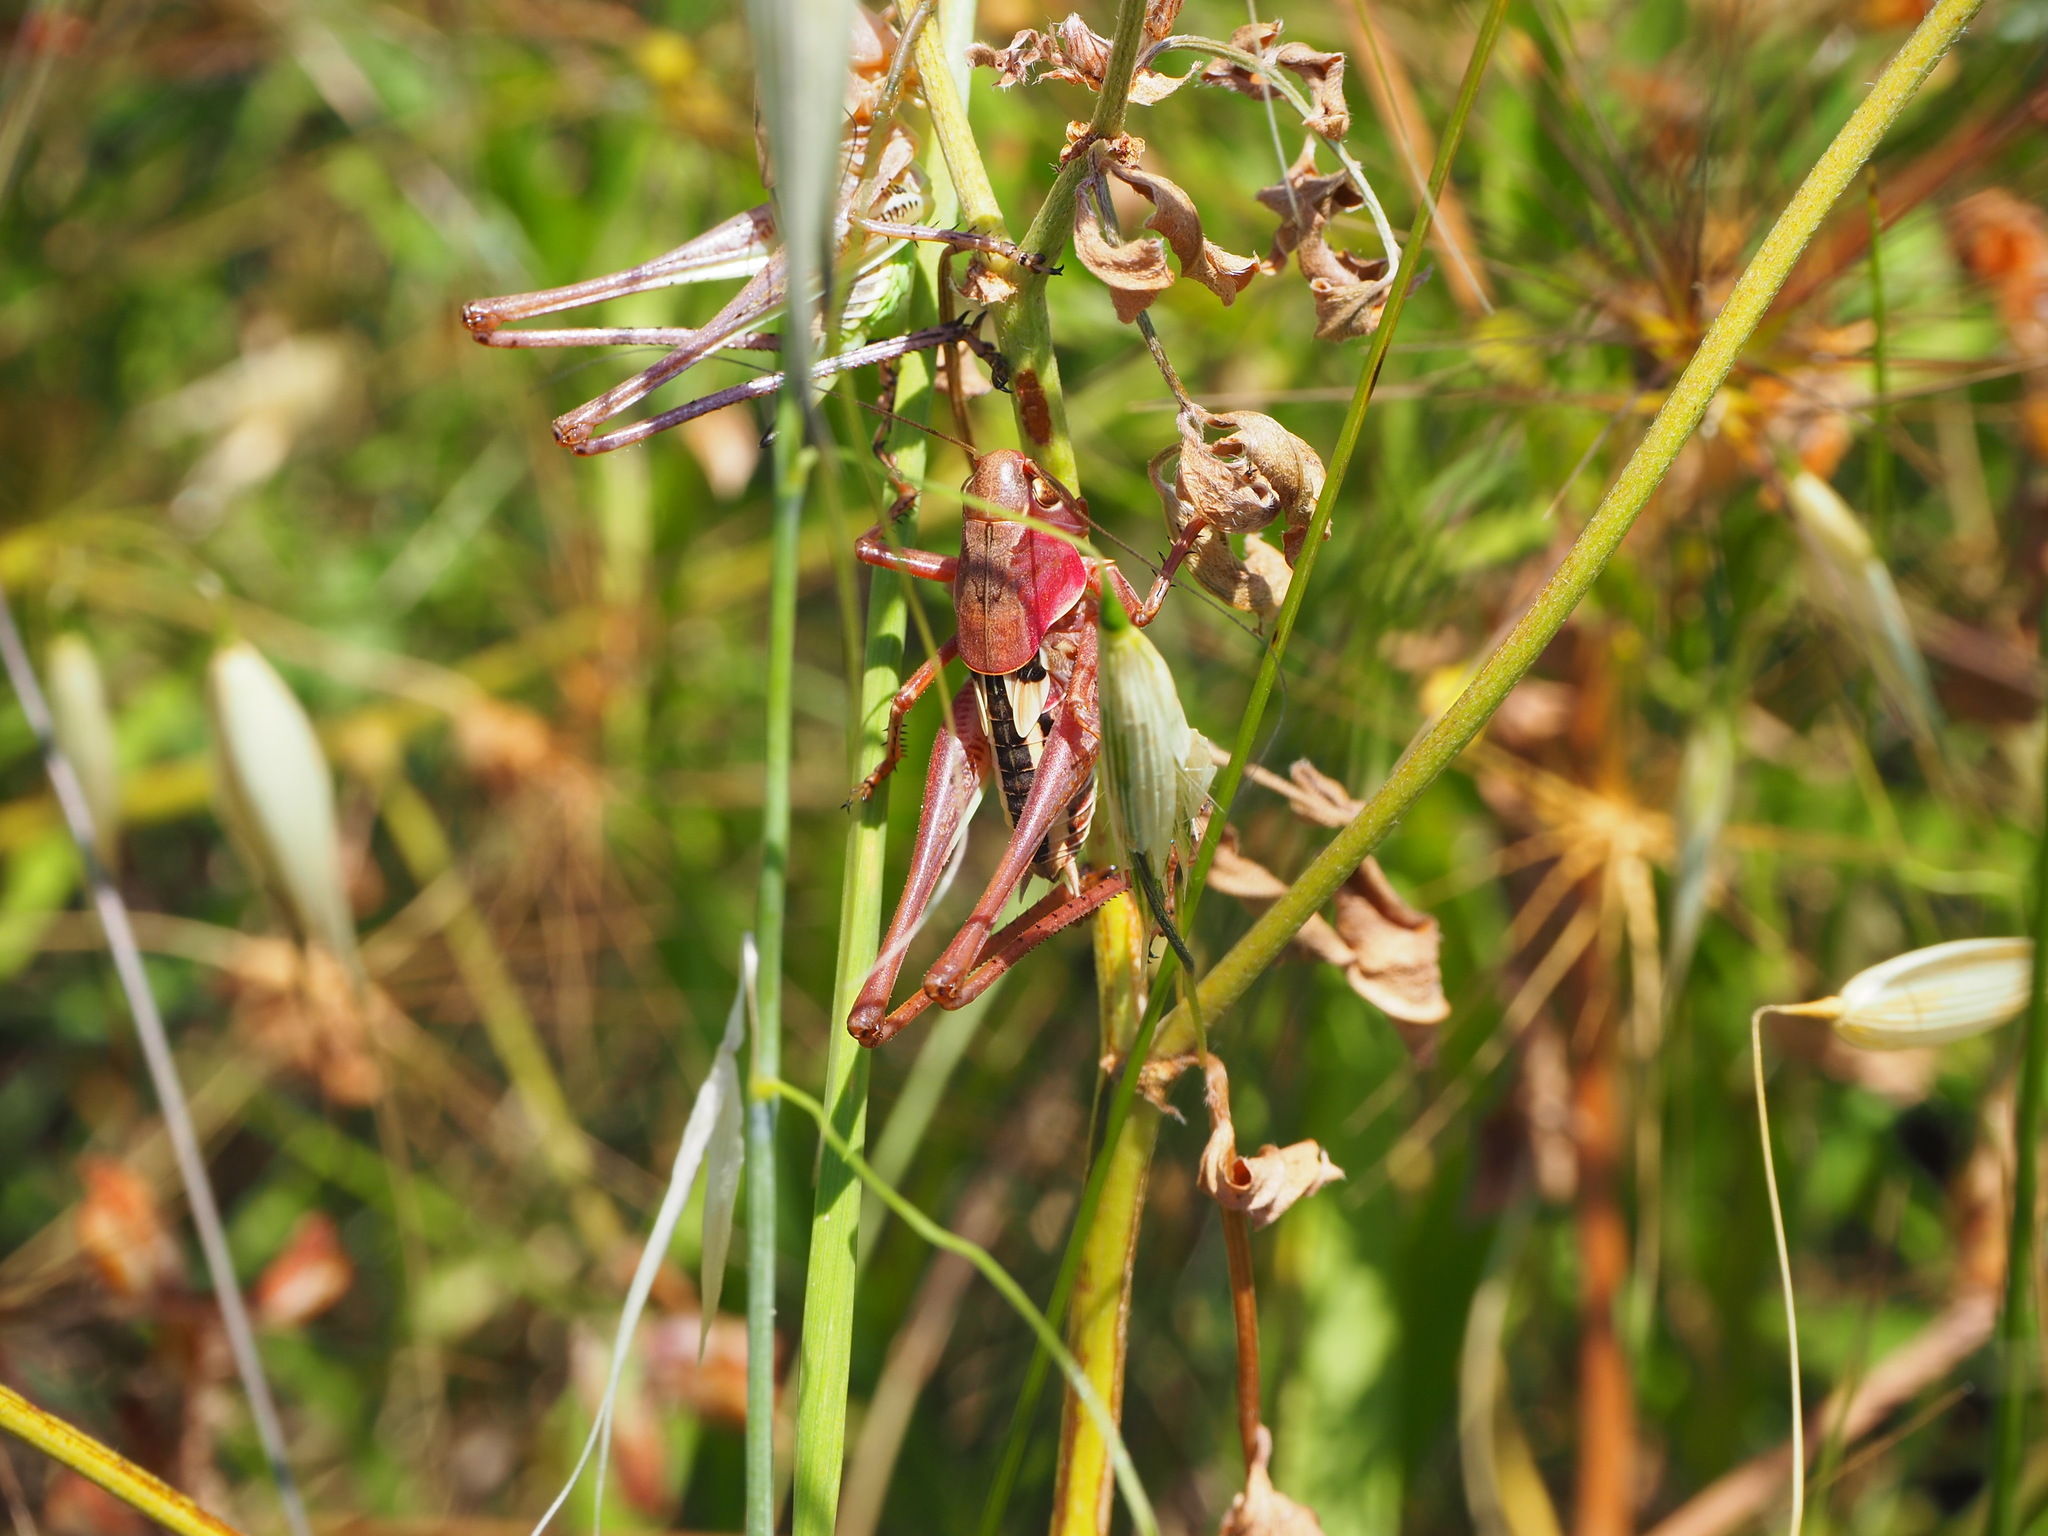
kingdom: Animalia
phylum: Arthropoda
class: Insecta
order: Orthoptera
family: Tettigoniidae
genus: Decticus
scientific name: Decticus albifrons
